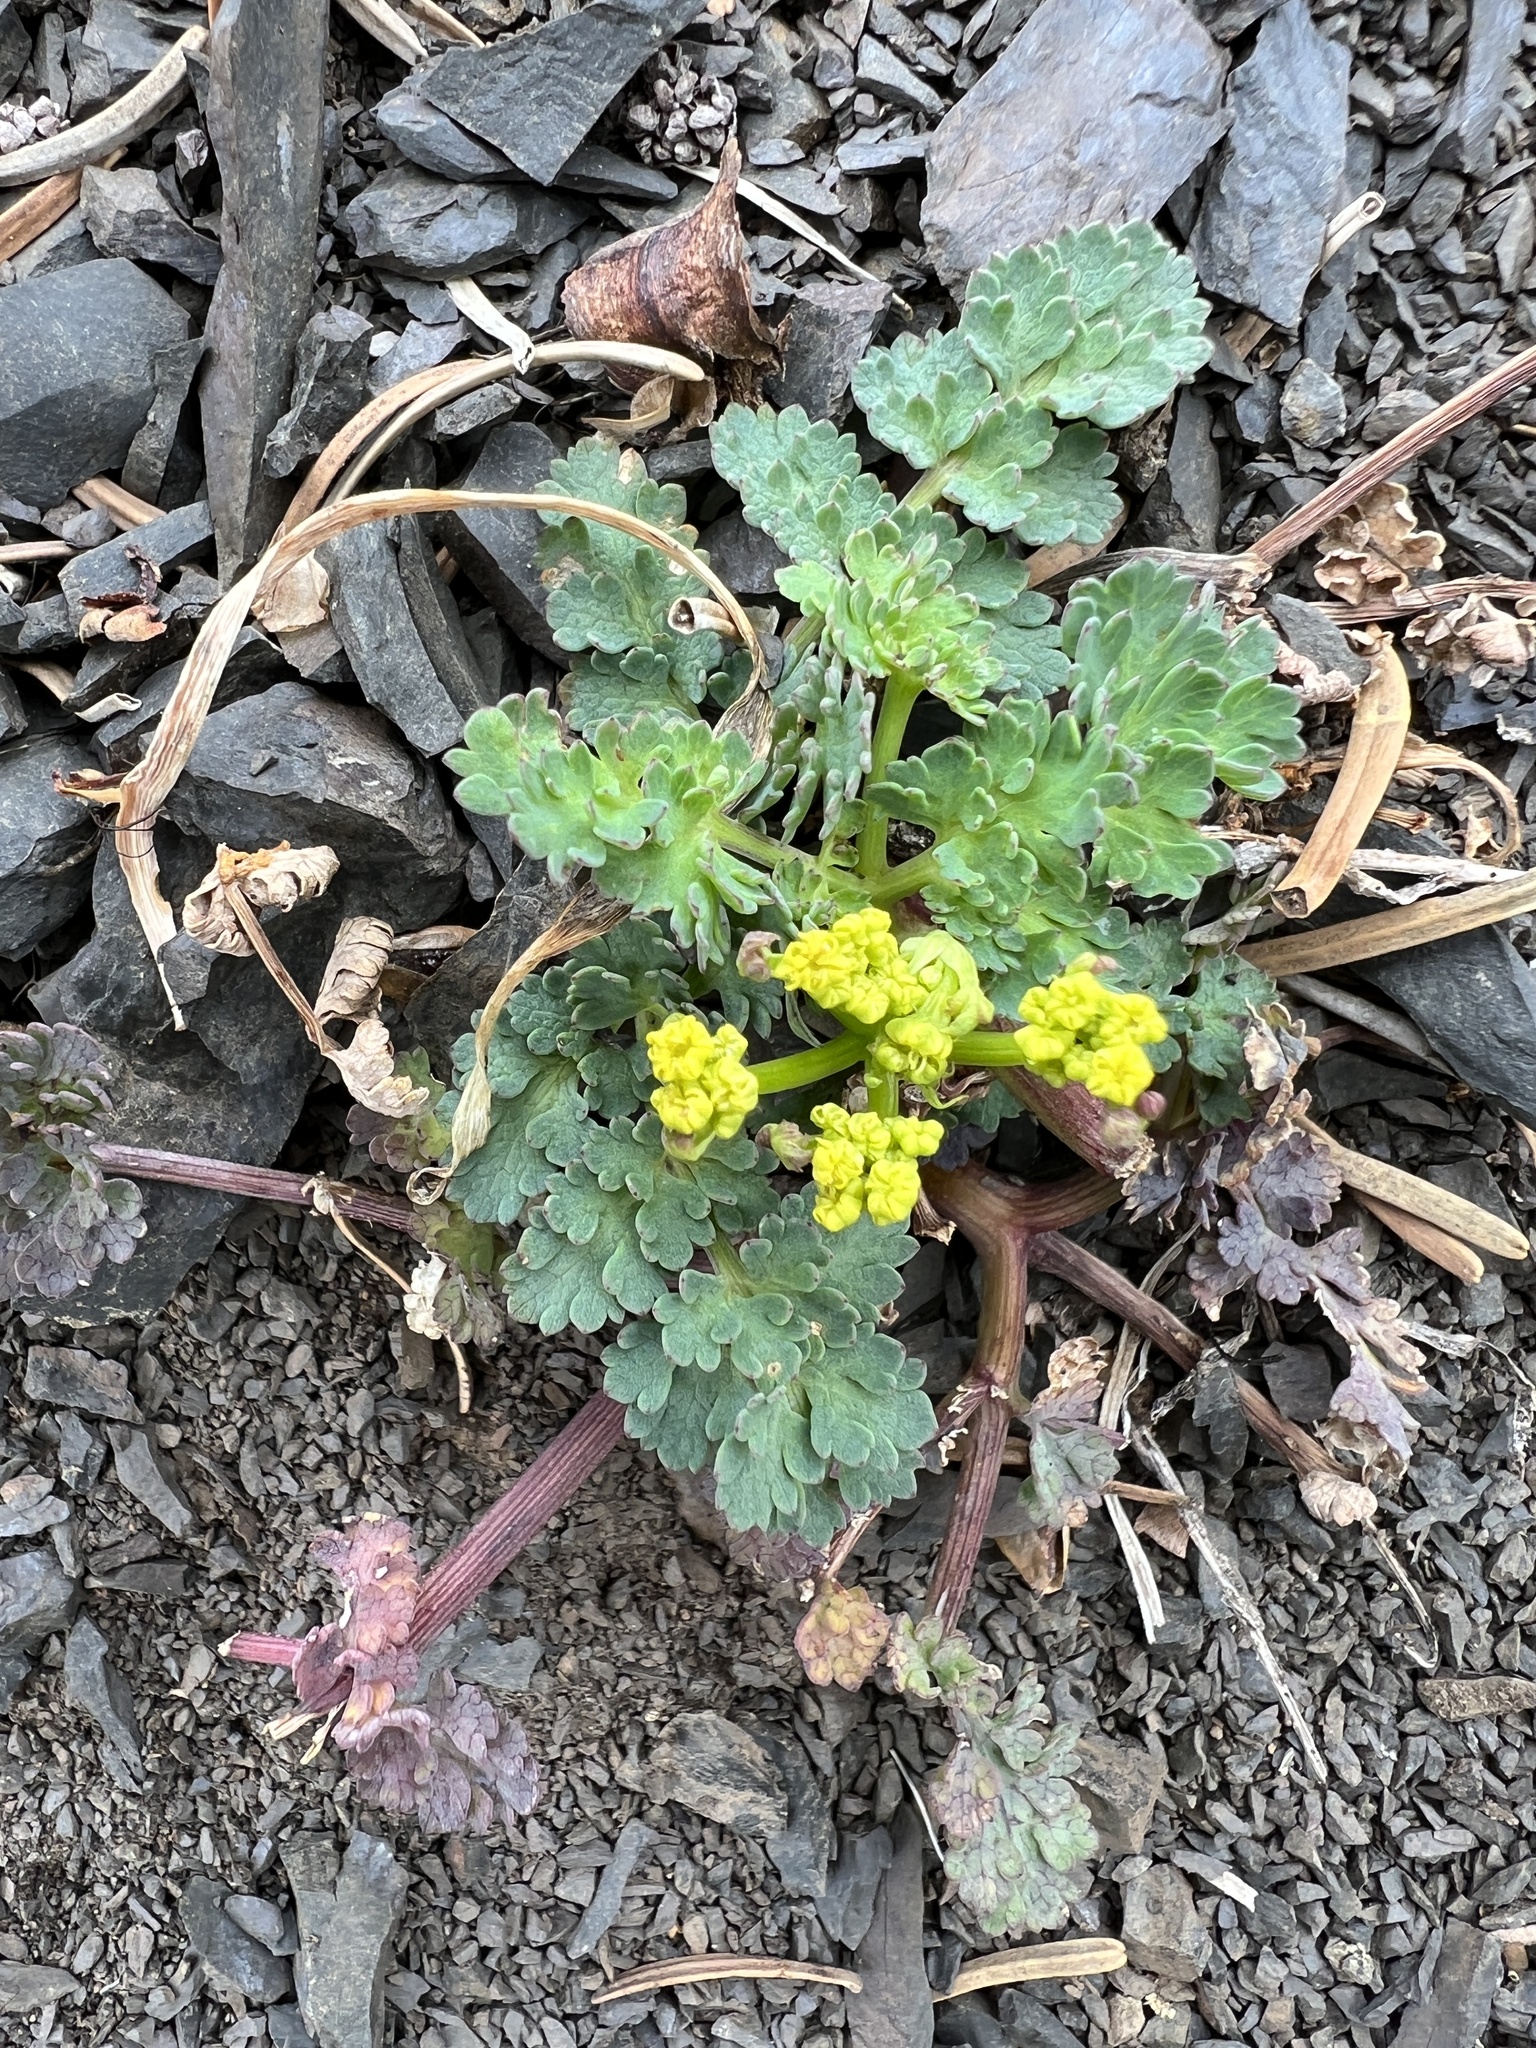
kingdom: Plantae
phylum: Tracheophyta
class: Magnoliopsida
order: Apiales
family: Apiaceae
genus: Lomatium
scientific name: Lomatium martindalei
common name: Cascade desert-parsley
